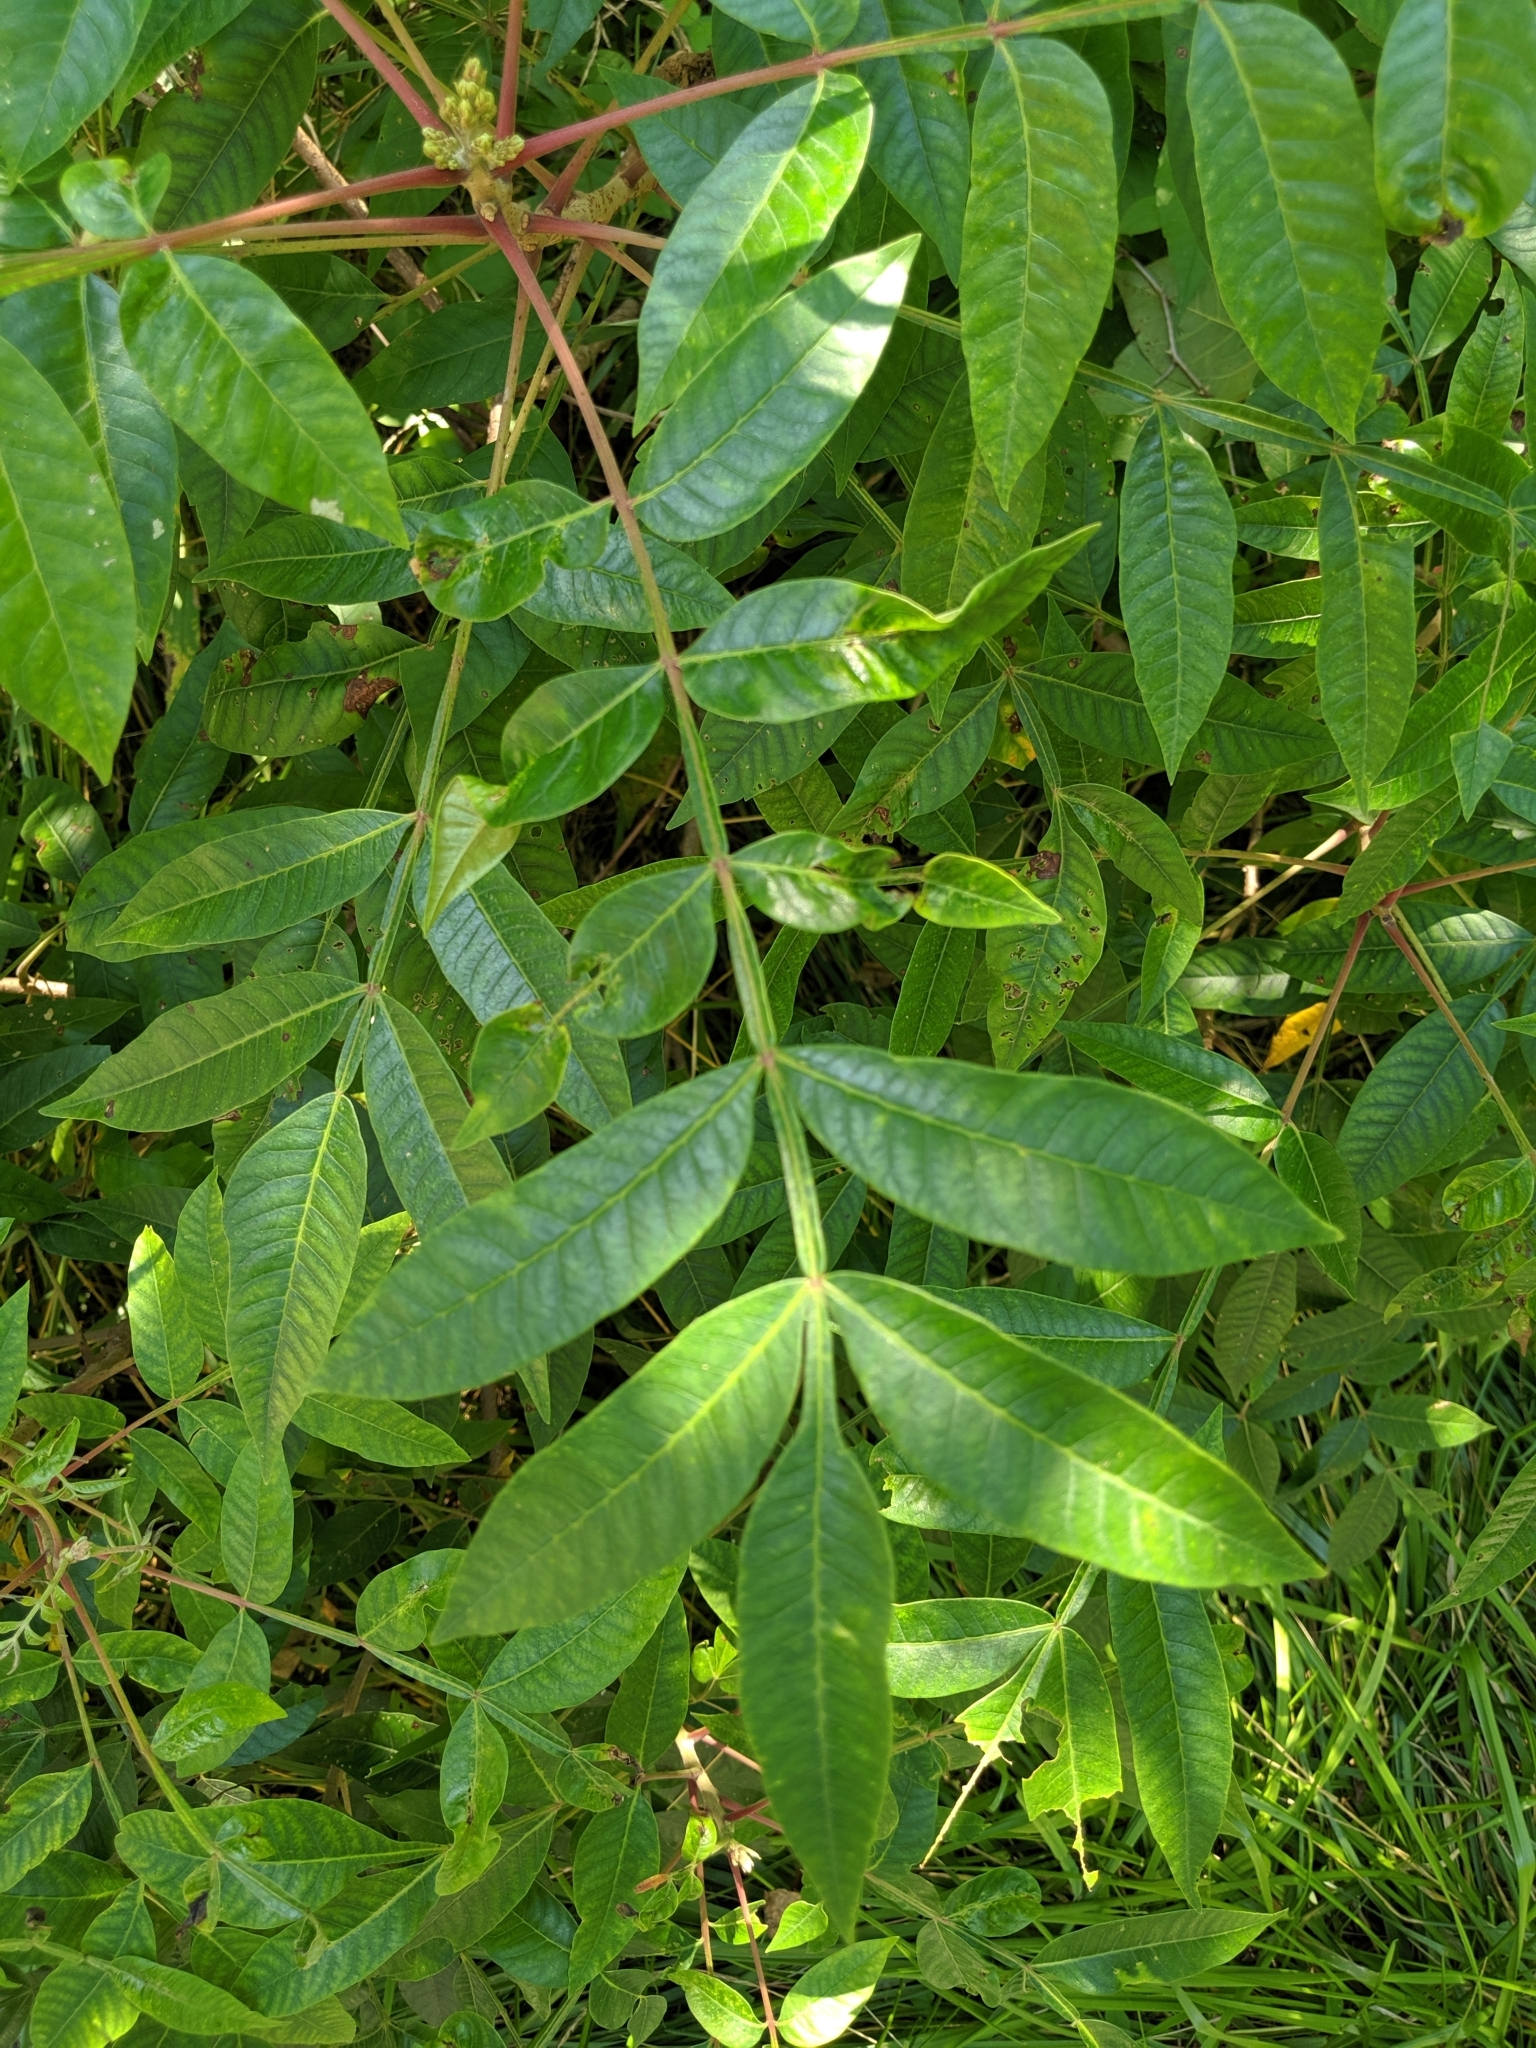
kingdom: Plantae
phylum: Tracheophyta
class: Magnoliopsida
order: Sapindales
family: Anacardiaceae
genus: Rhus
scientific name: Rhus copallina
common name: Shining sumac
